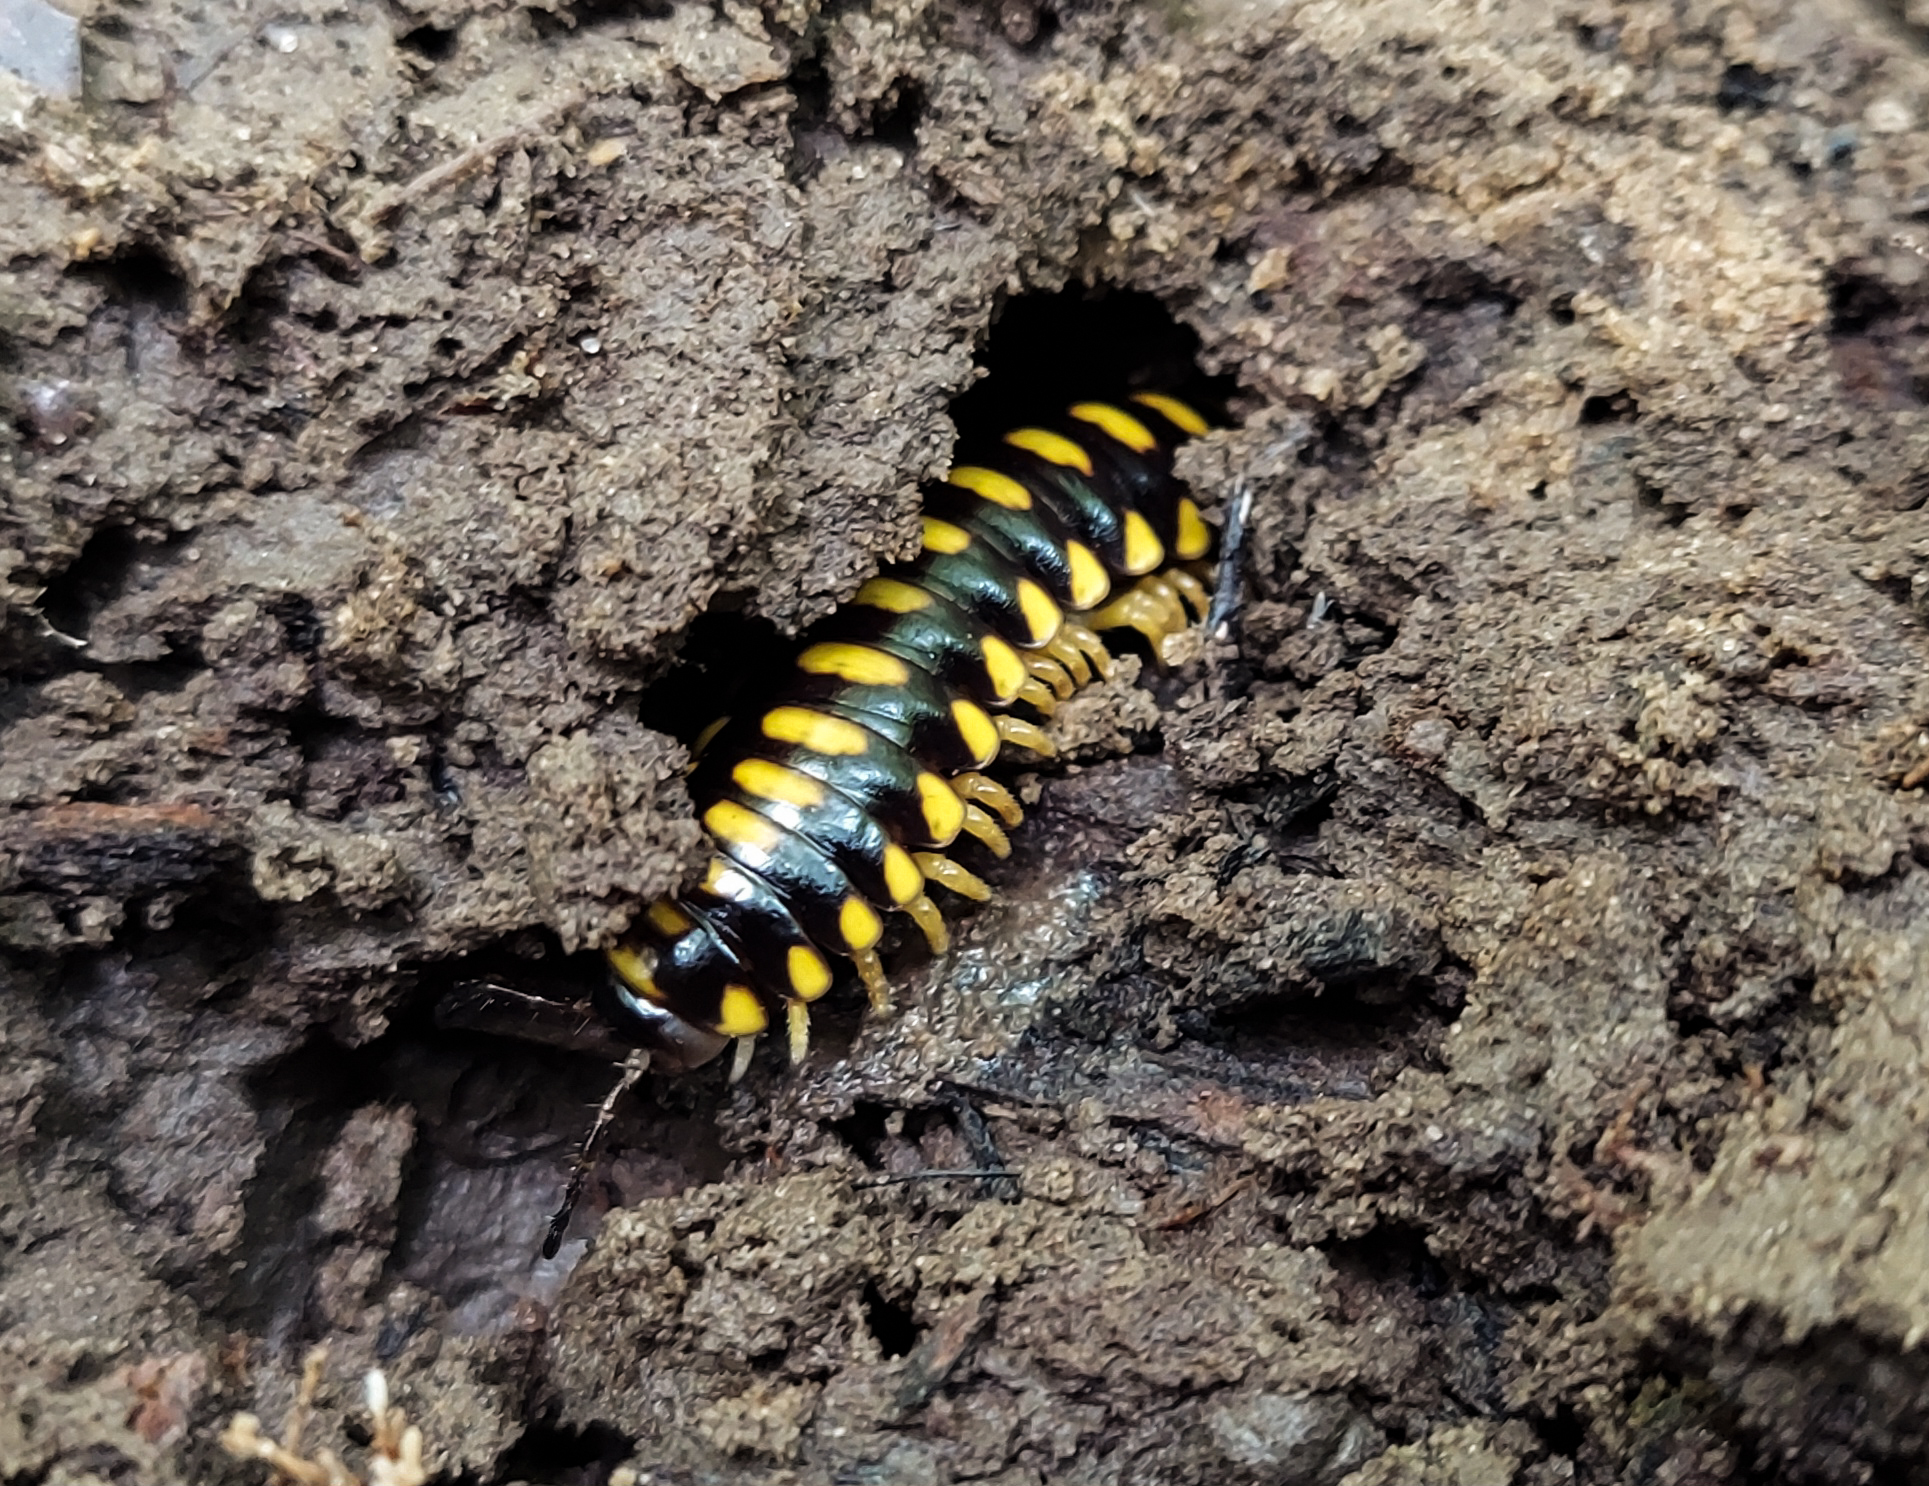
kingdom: Animalia
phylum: Arthropoda
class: Diplopoda
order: Polydesmida
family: Xystodesmidae
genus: Brachoria
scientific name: Brachoria insolita
